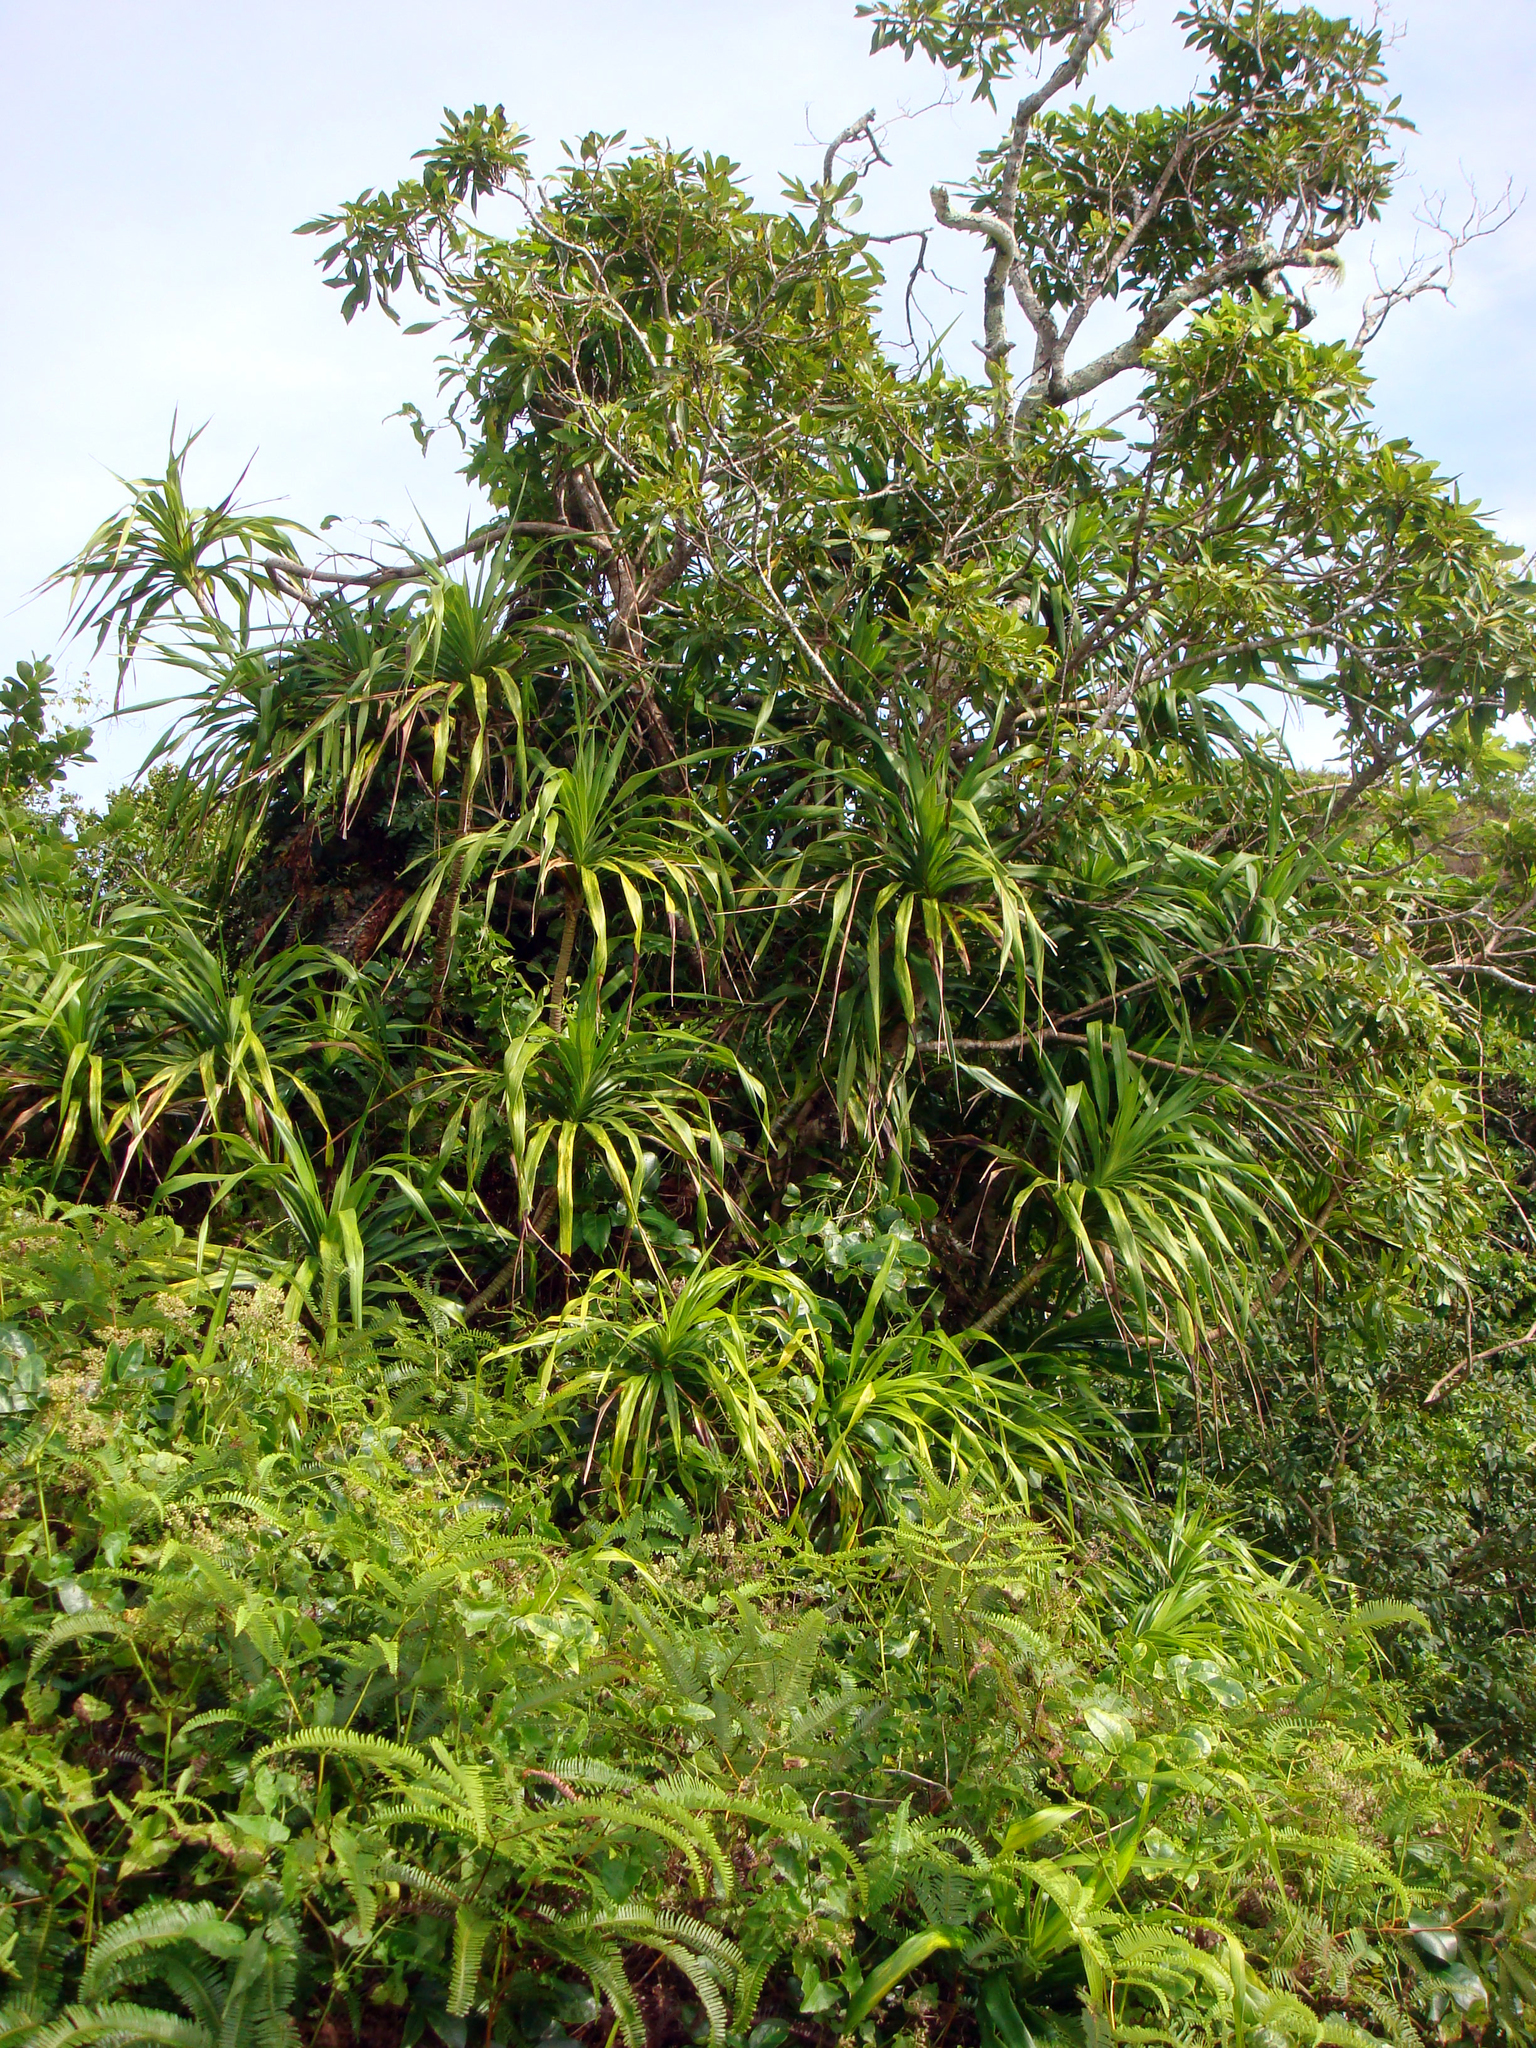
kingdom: Plantae
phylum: Tracheophyta
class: Liliopsida
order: Pandanales
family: Pandanaceae
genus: Freycinetia
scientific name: Freycinetia arborea
